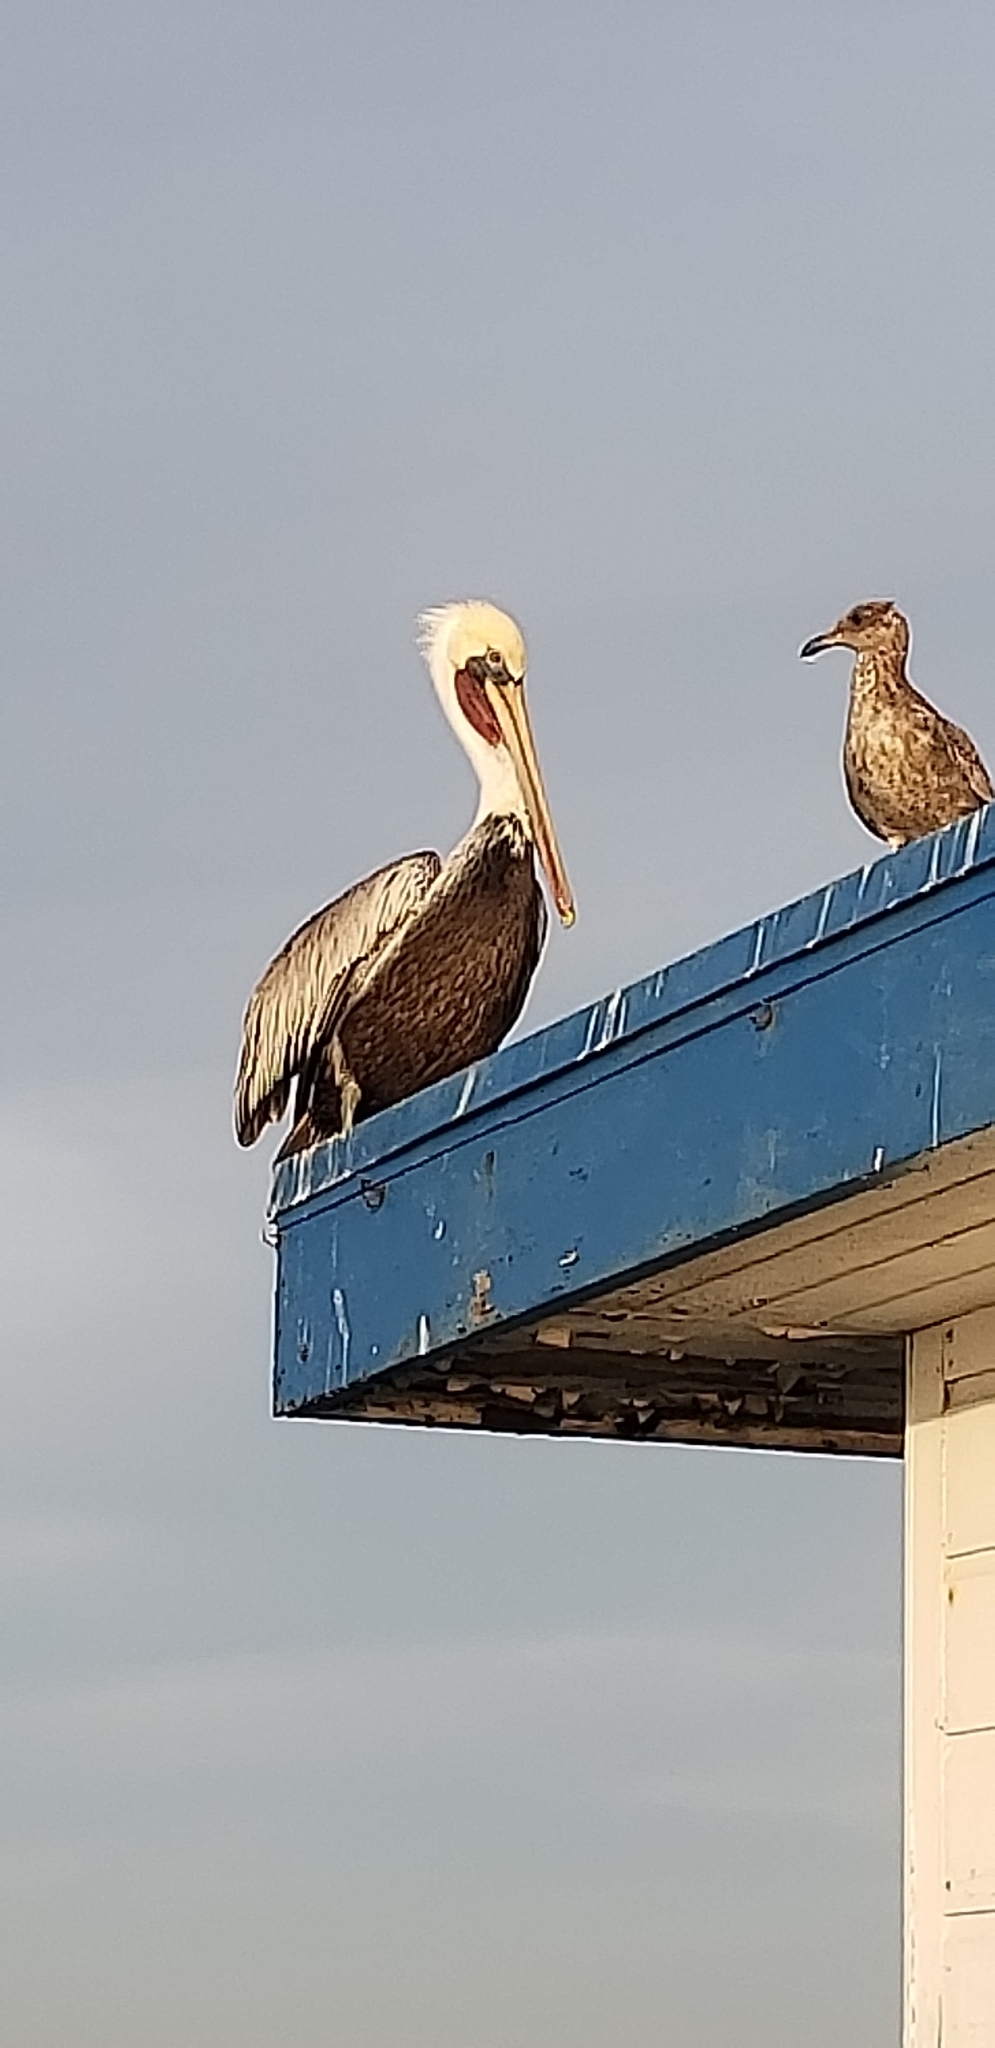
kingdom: Animalia
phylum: Chordata
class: Aves
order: Pelecaniformes
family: Pelecanidae
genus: Pelecanus
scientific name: Pelecanus occidentalis
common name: Brown pelican
